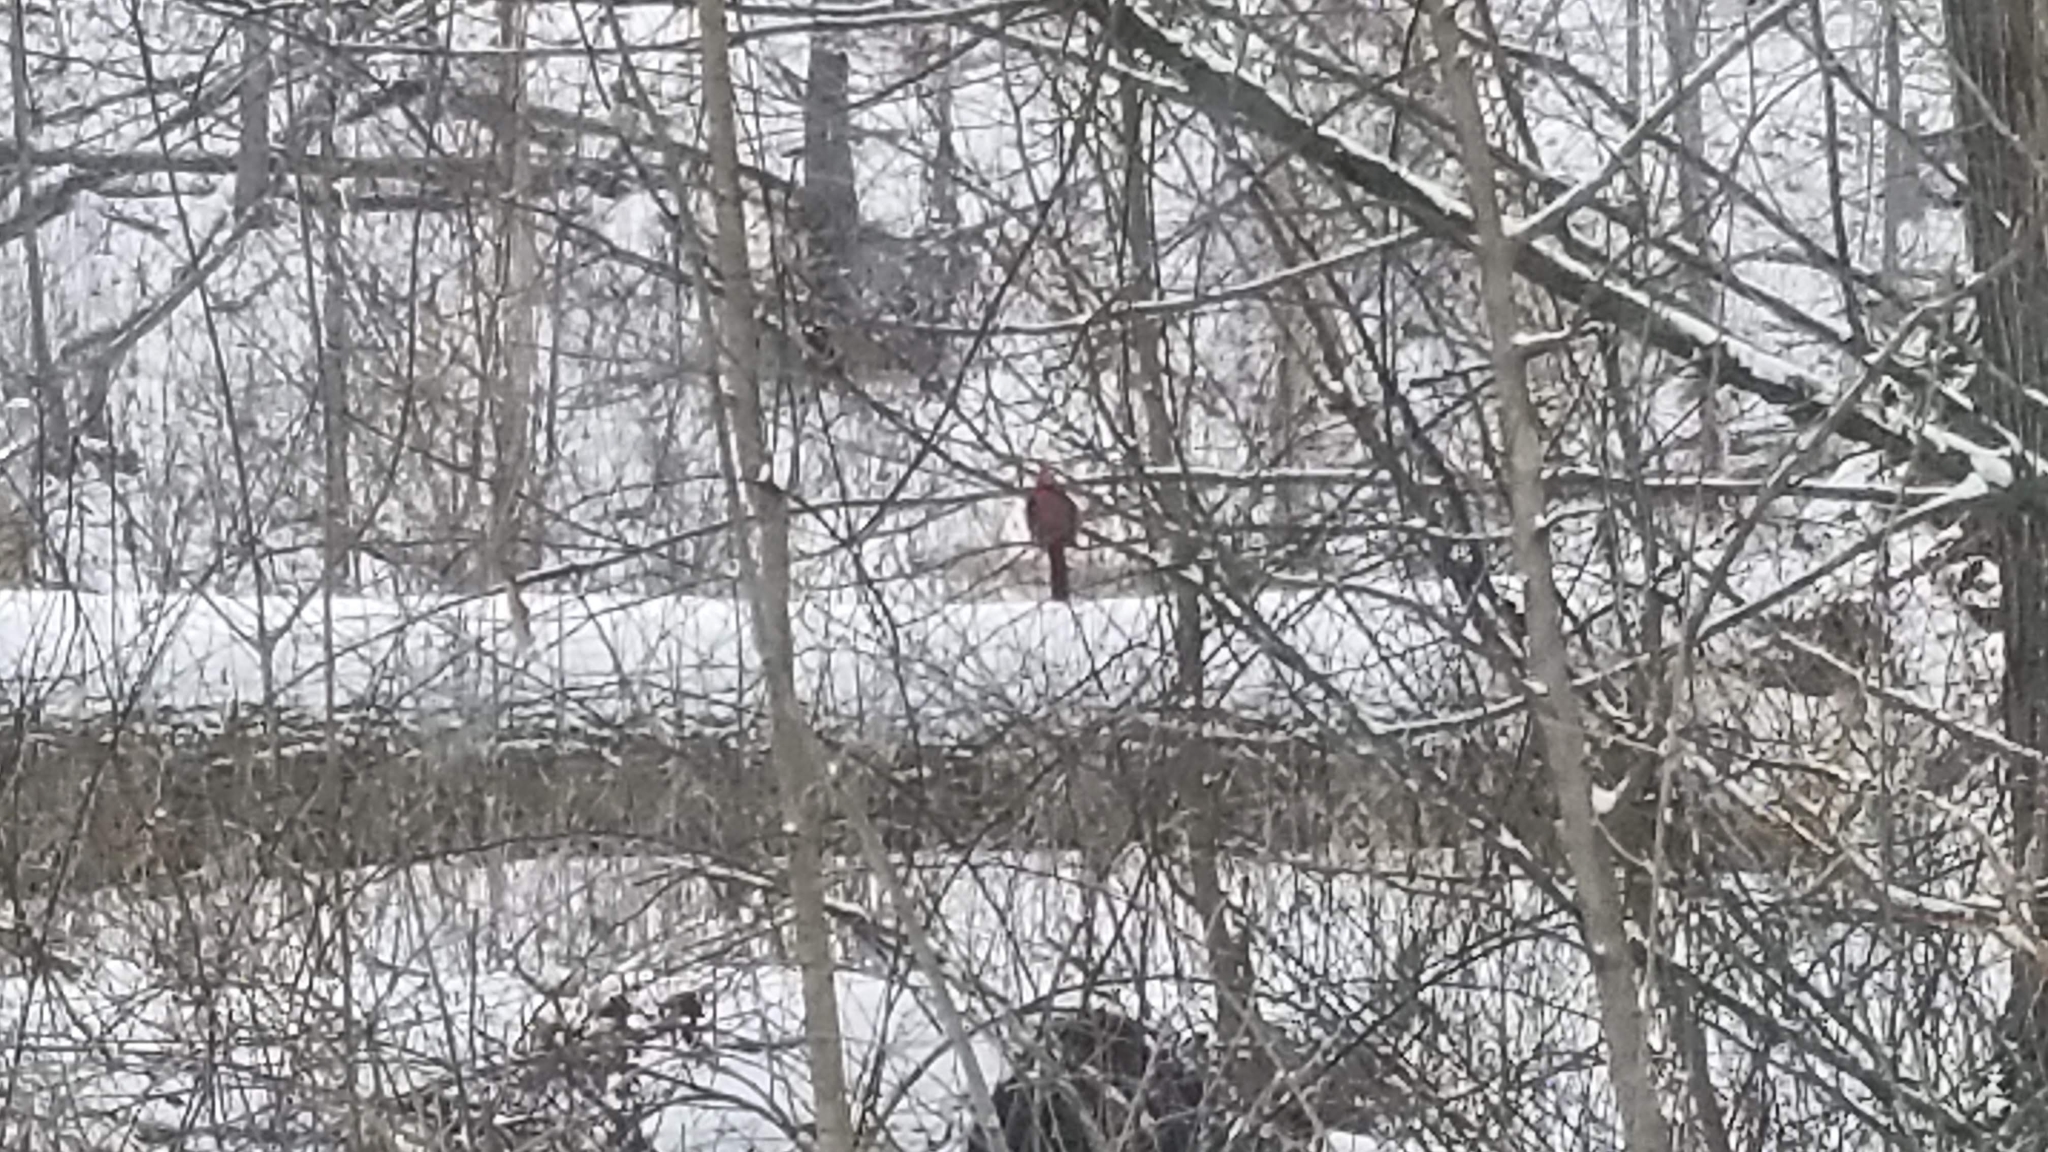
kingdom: Animalia
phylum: Chordata
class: Aves
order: Passeriformes
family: Cardinalidae
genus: Cardinalis
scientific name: Cardinalis cardinalis
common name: Northern cardinal
